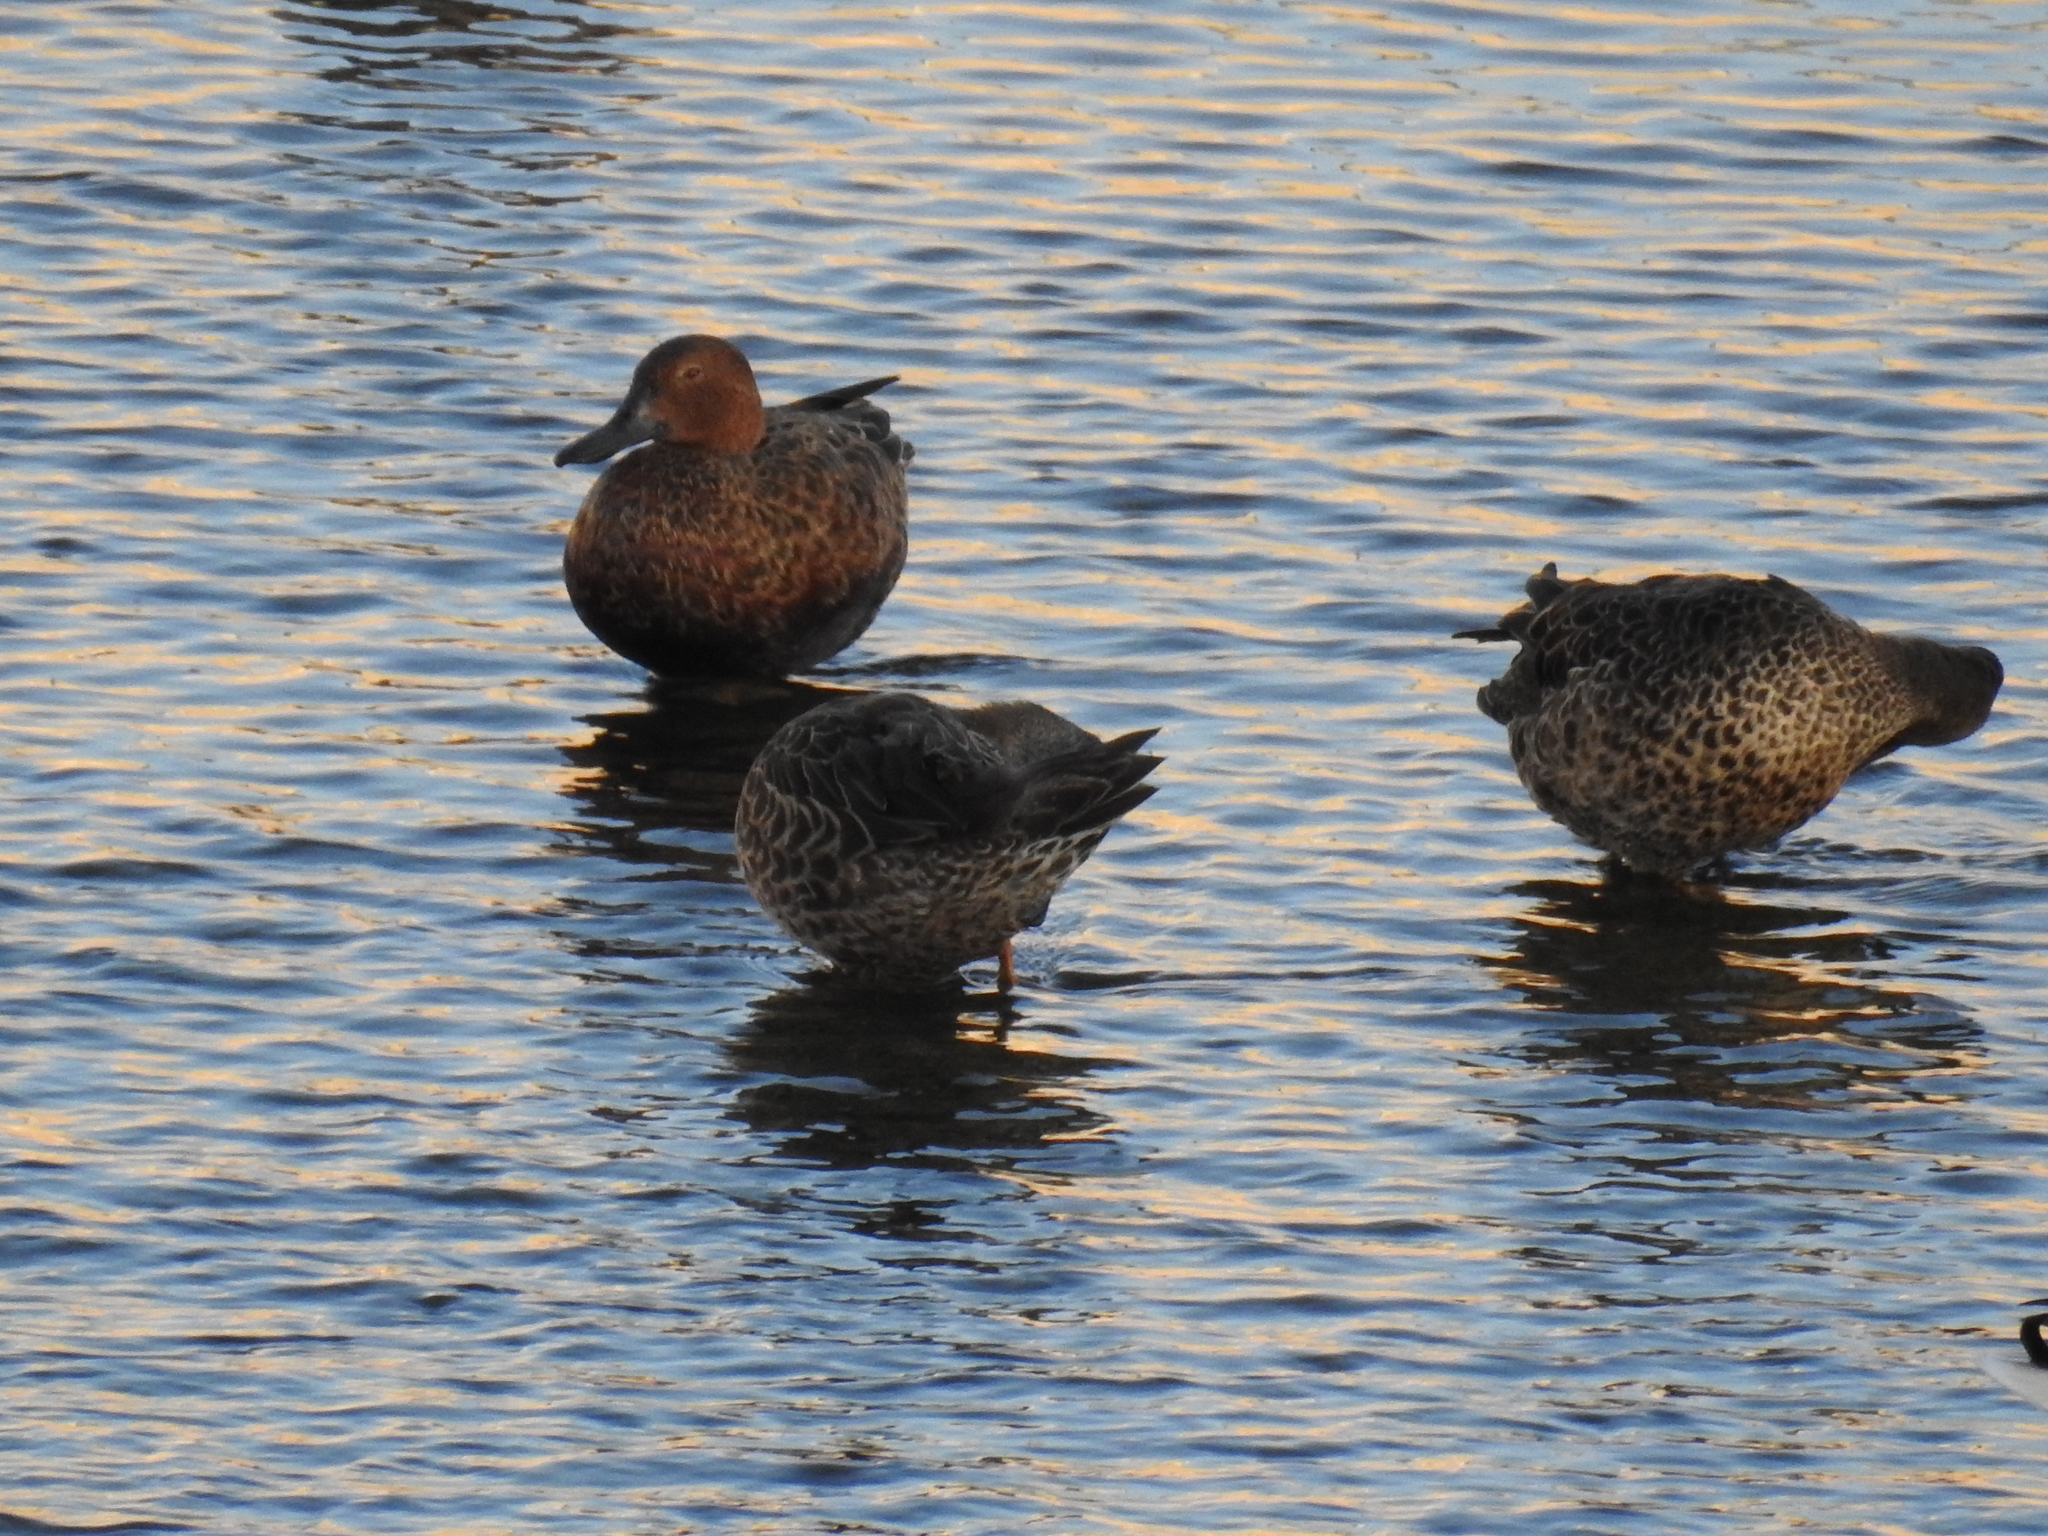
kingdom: Animalia
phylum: Chordata
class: Aves
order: Anseriformes
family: Anatidae
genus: Spatula
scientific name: Spatula cyanoptera
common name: Cinnamon teal
